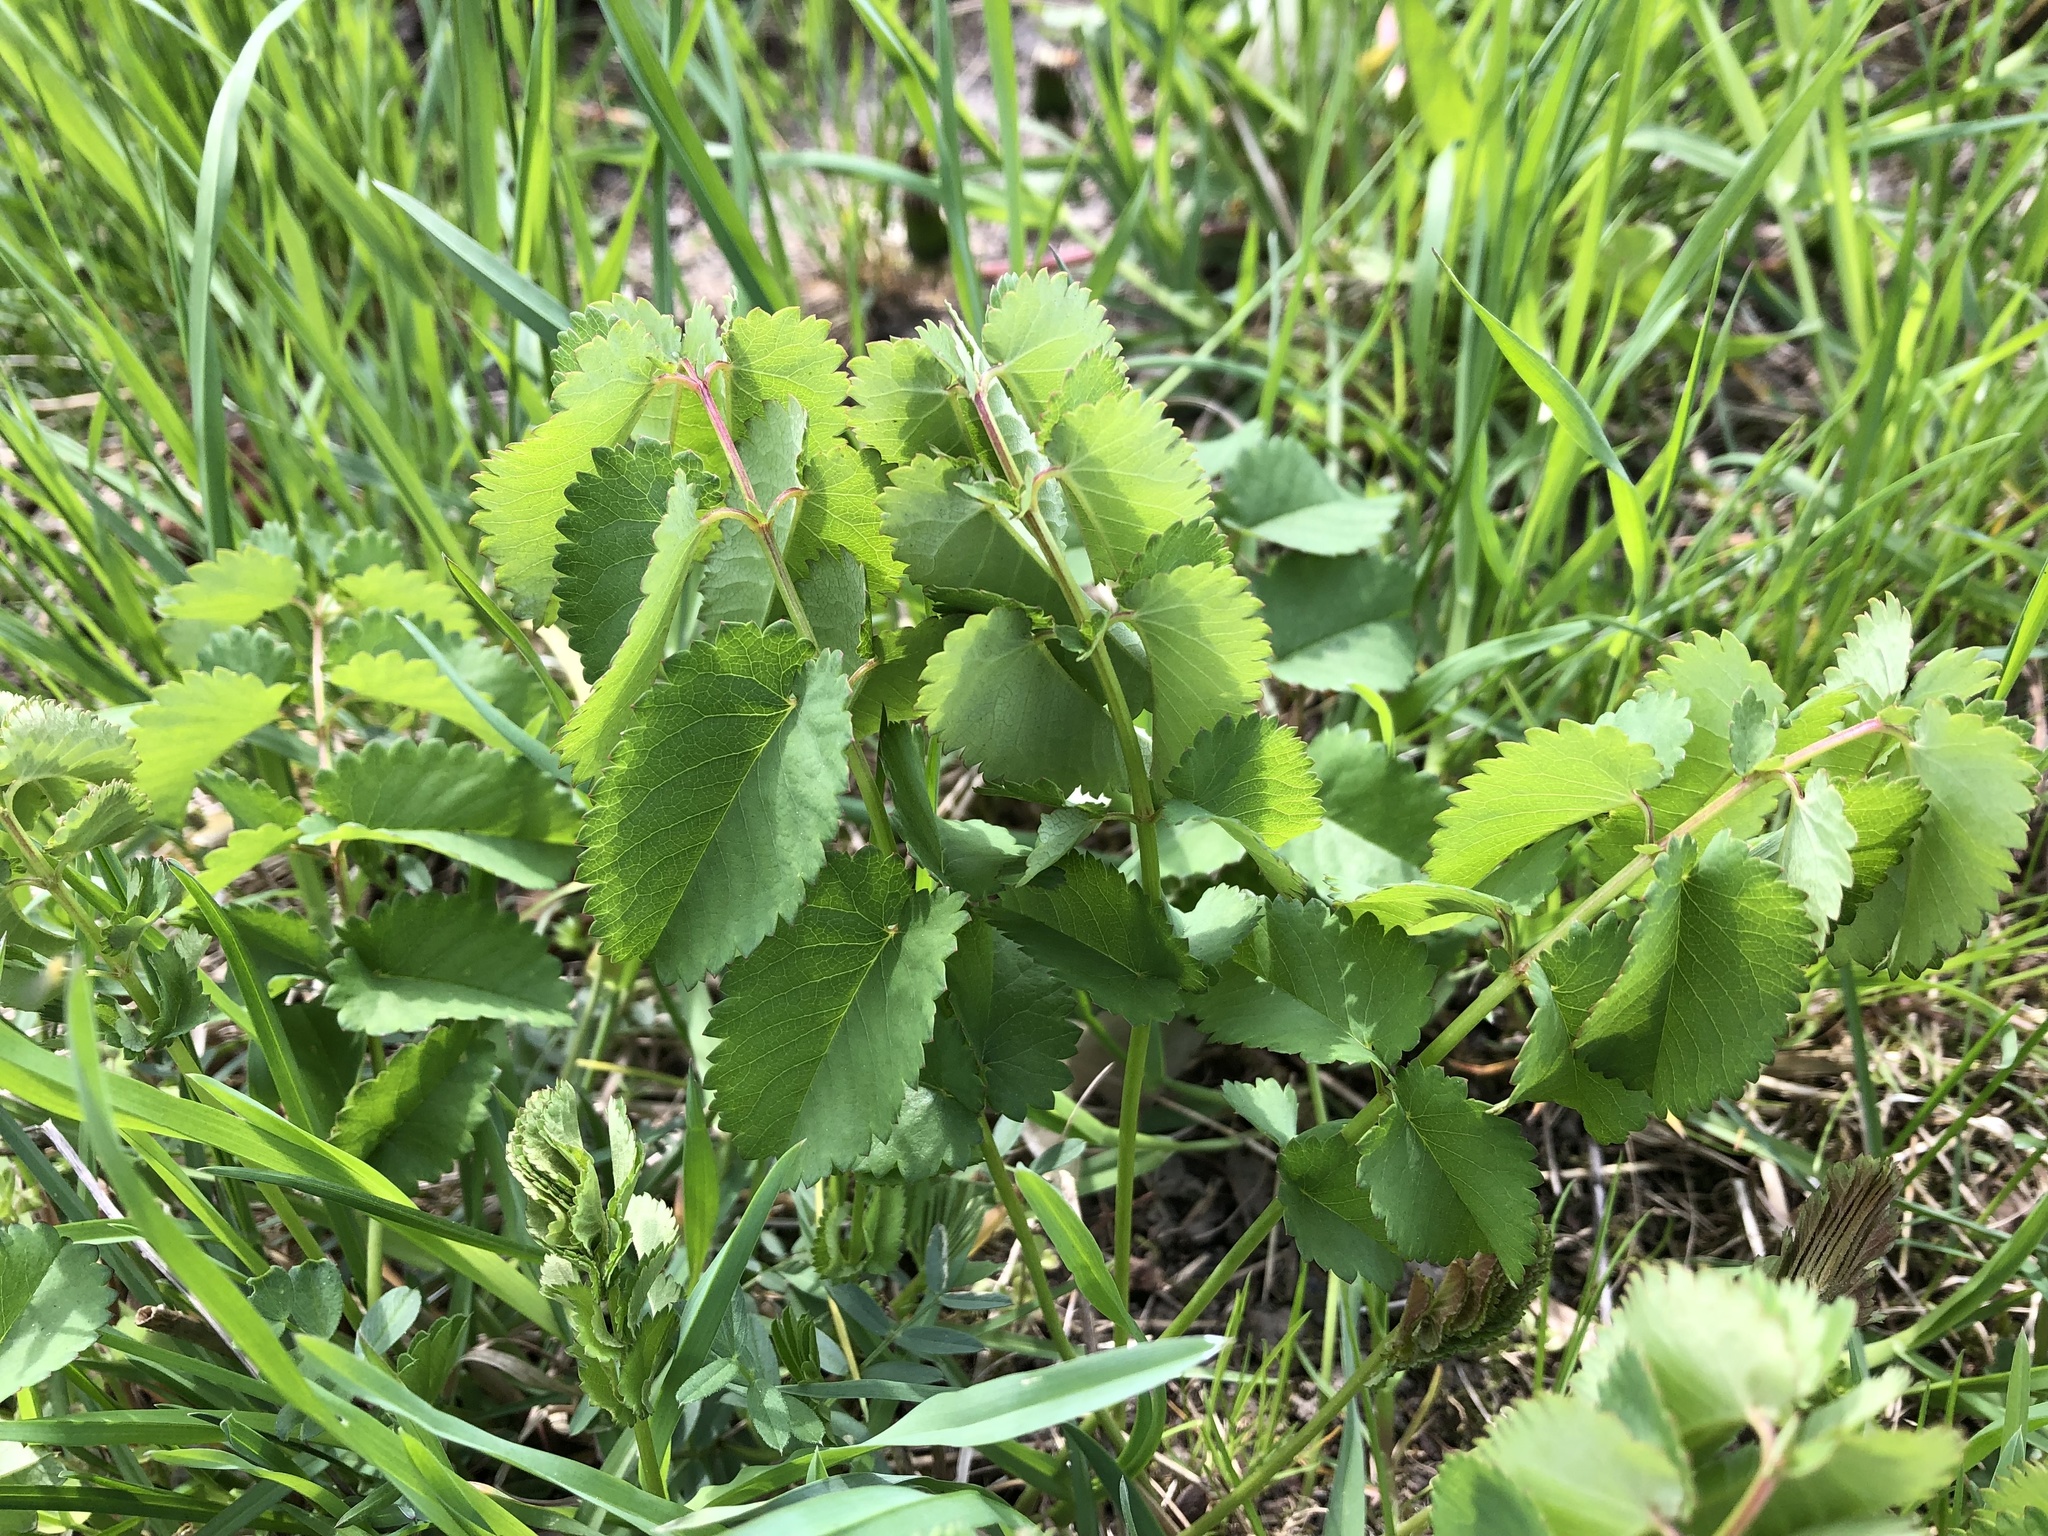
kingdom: Plantae
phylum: Tracheophyta
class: Magnoliopsida
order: Rosales
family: Rosaceae
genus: Sanguisorba
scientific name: Sanguisorba officinalis
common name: Great burnet
